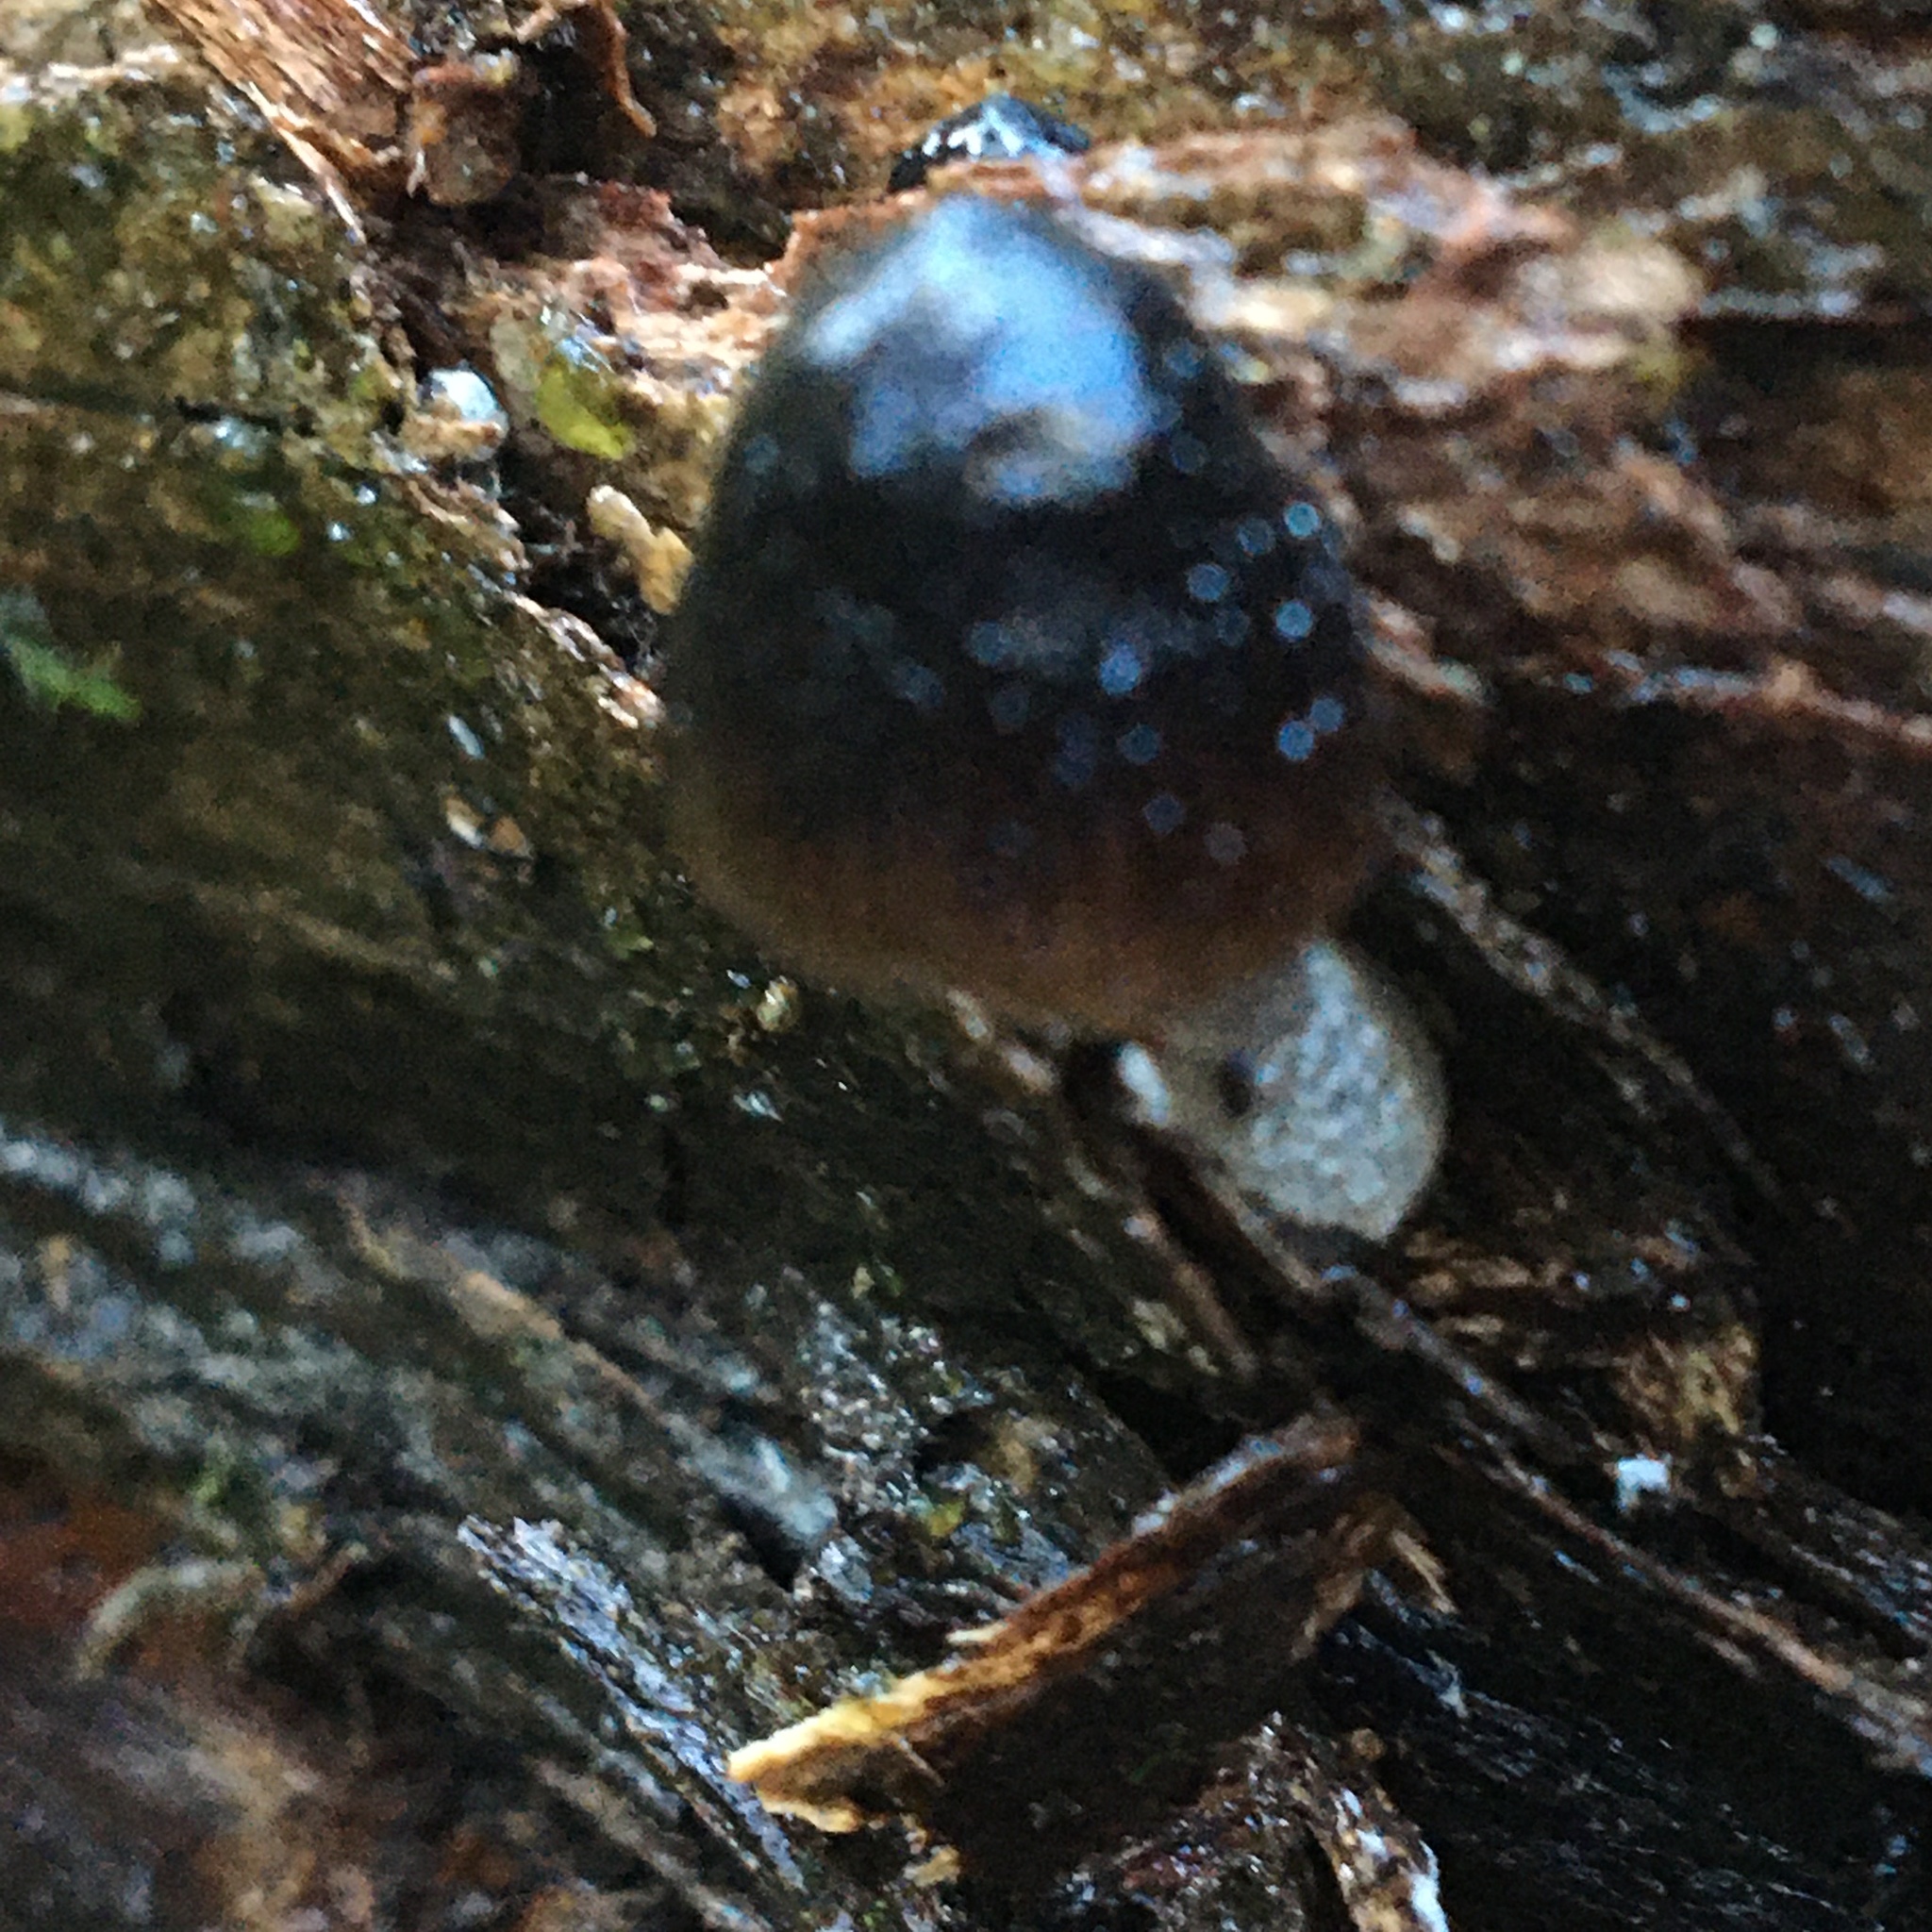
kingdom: Fungi
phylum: Basidiomycota
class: Agaricomycetes
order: Agaricales
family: Mycenaceae
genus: Mycena
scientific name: Mycena nargan
